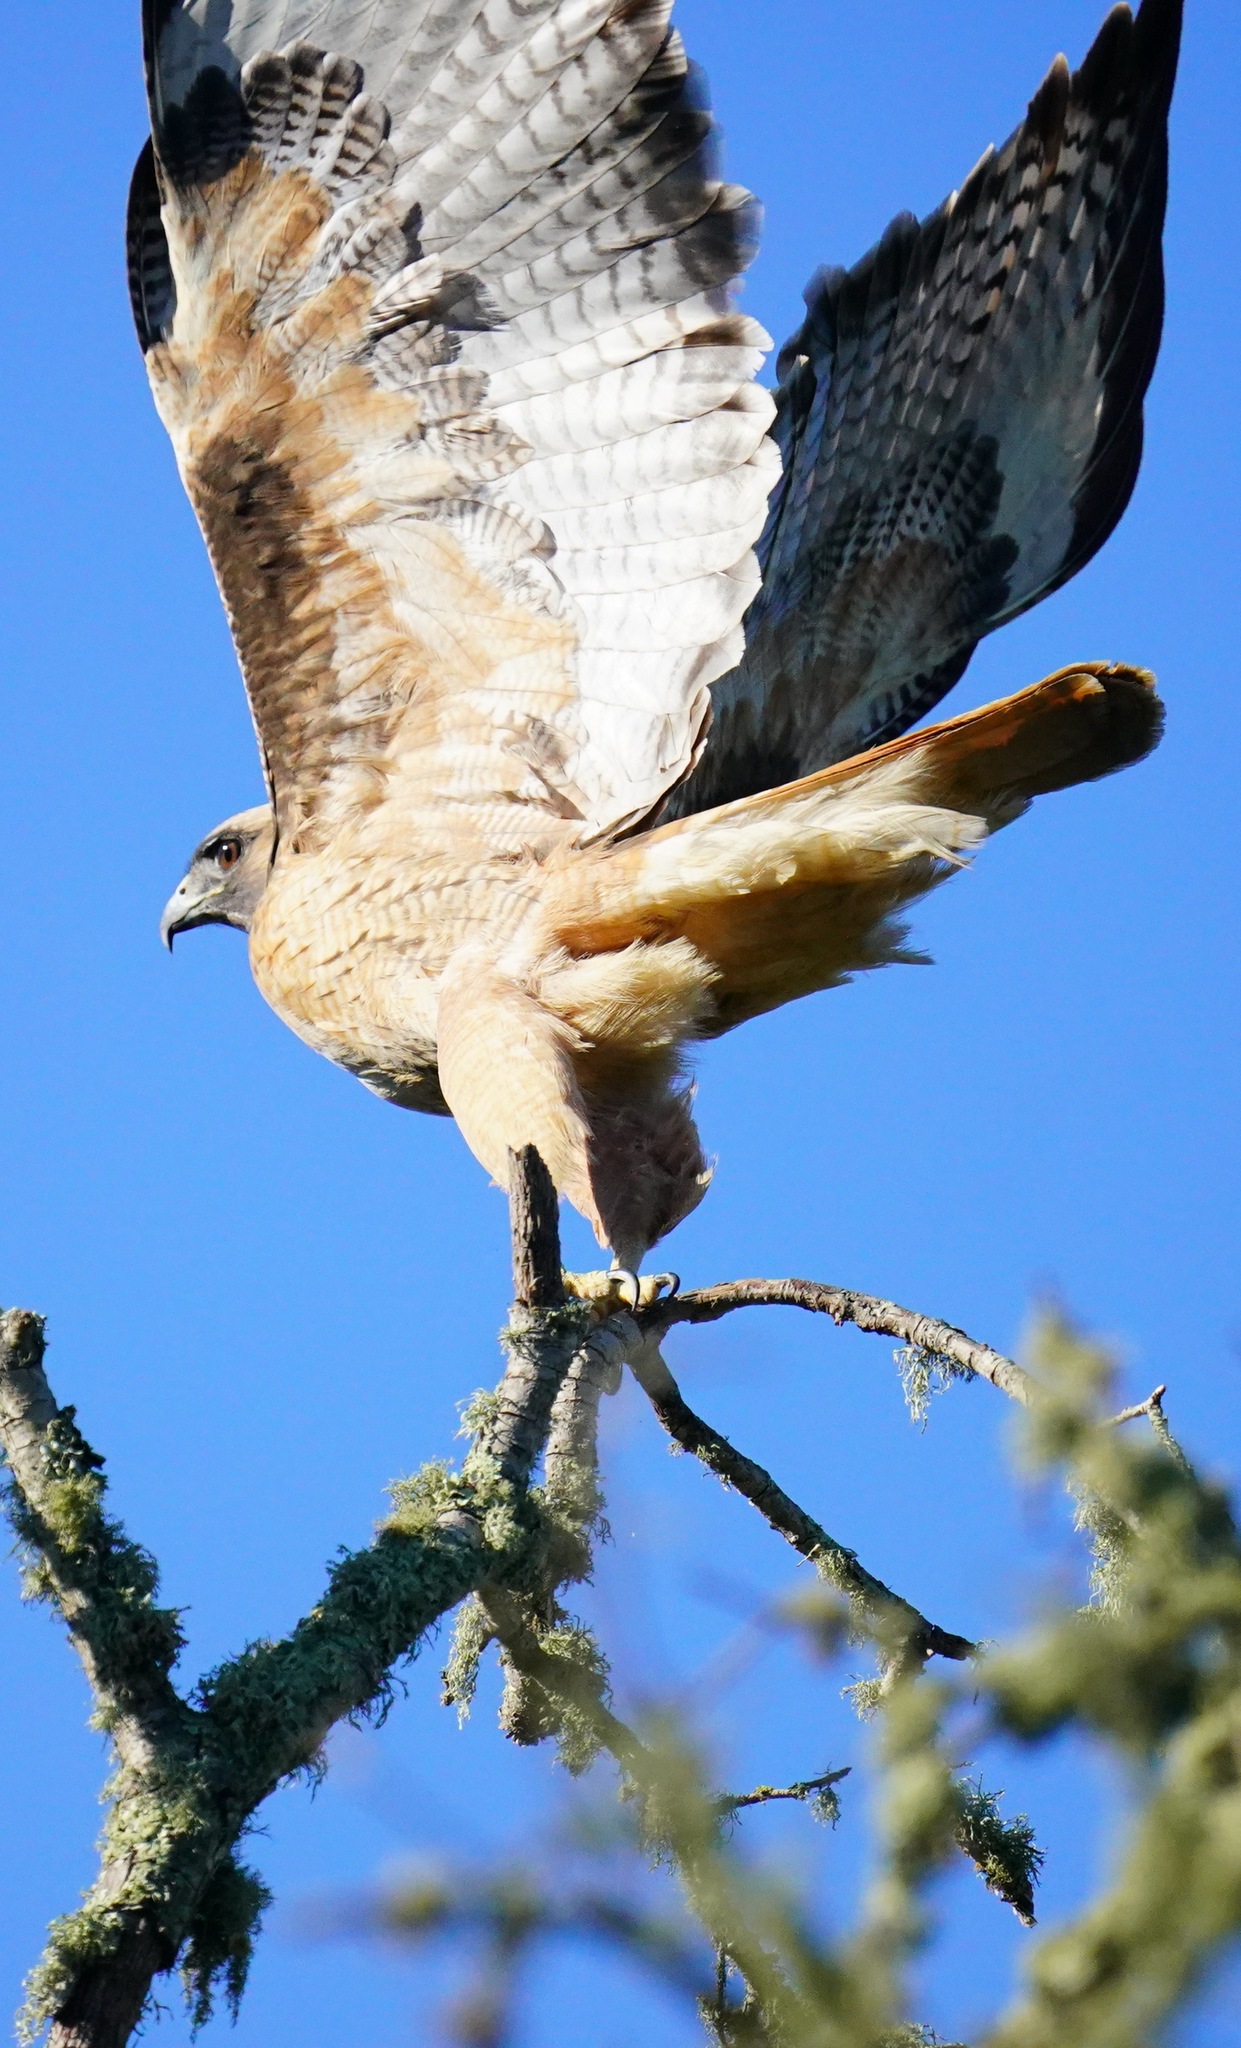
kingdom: Animalia
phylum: Chordata
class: Aves
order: Accipitriformes
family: Accipitridae
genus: Buteo
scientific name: Buteo jamaicensis
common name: Red-tailed hawk
